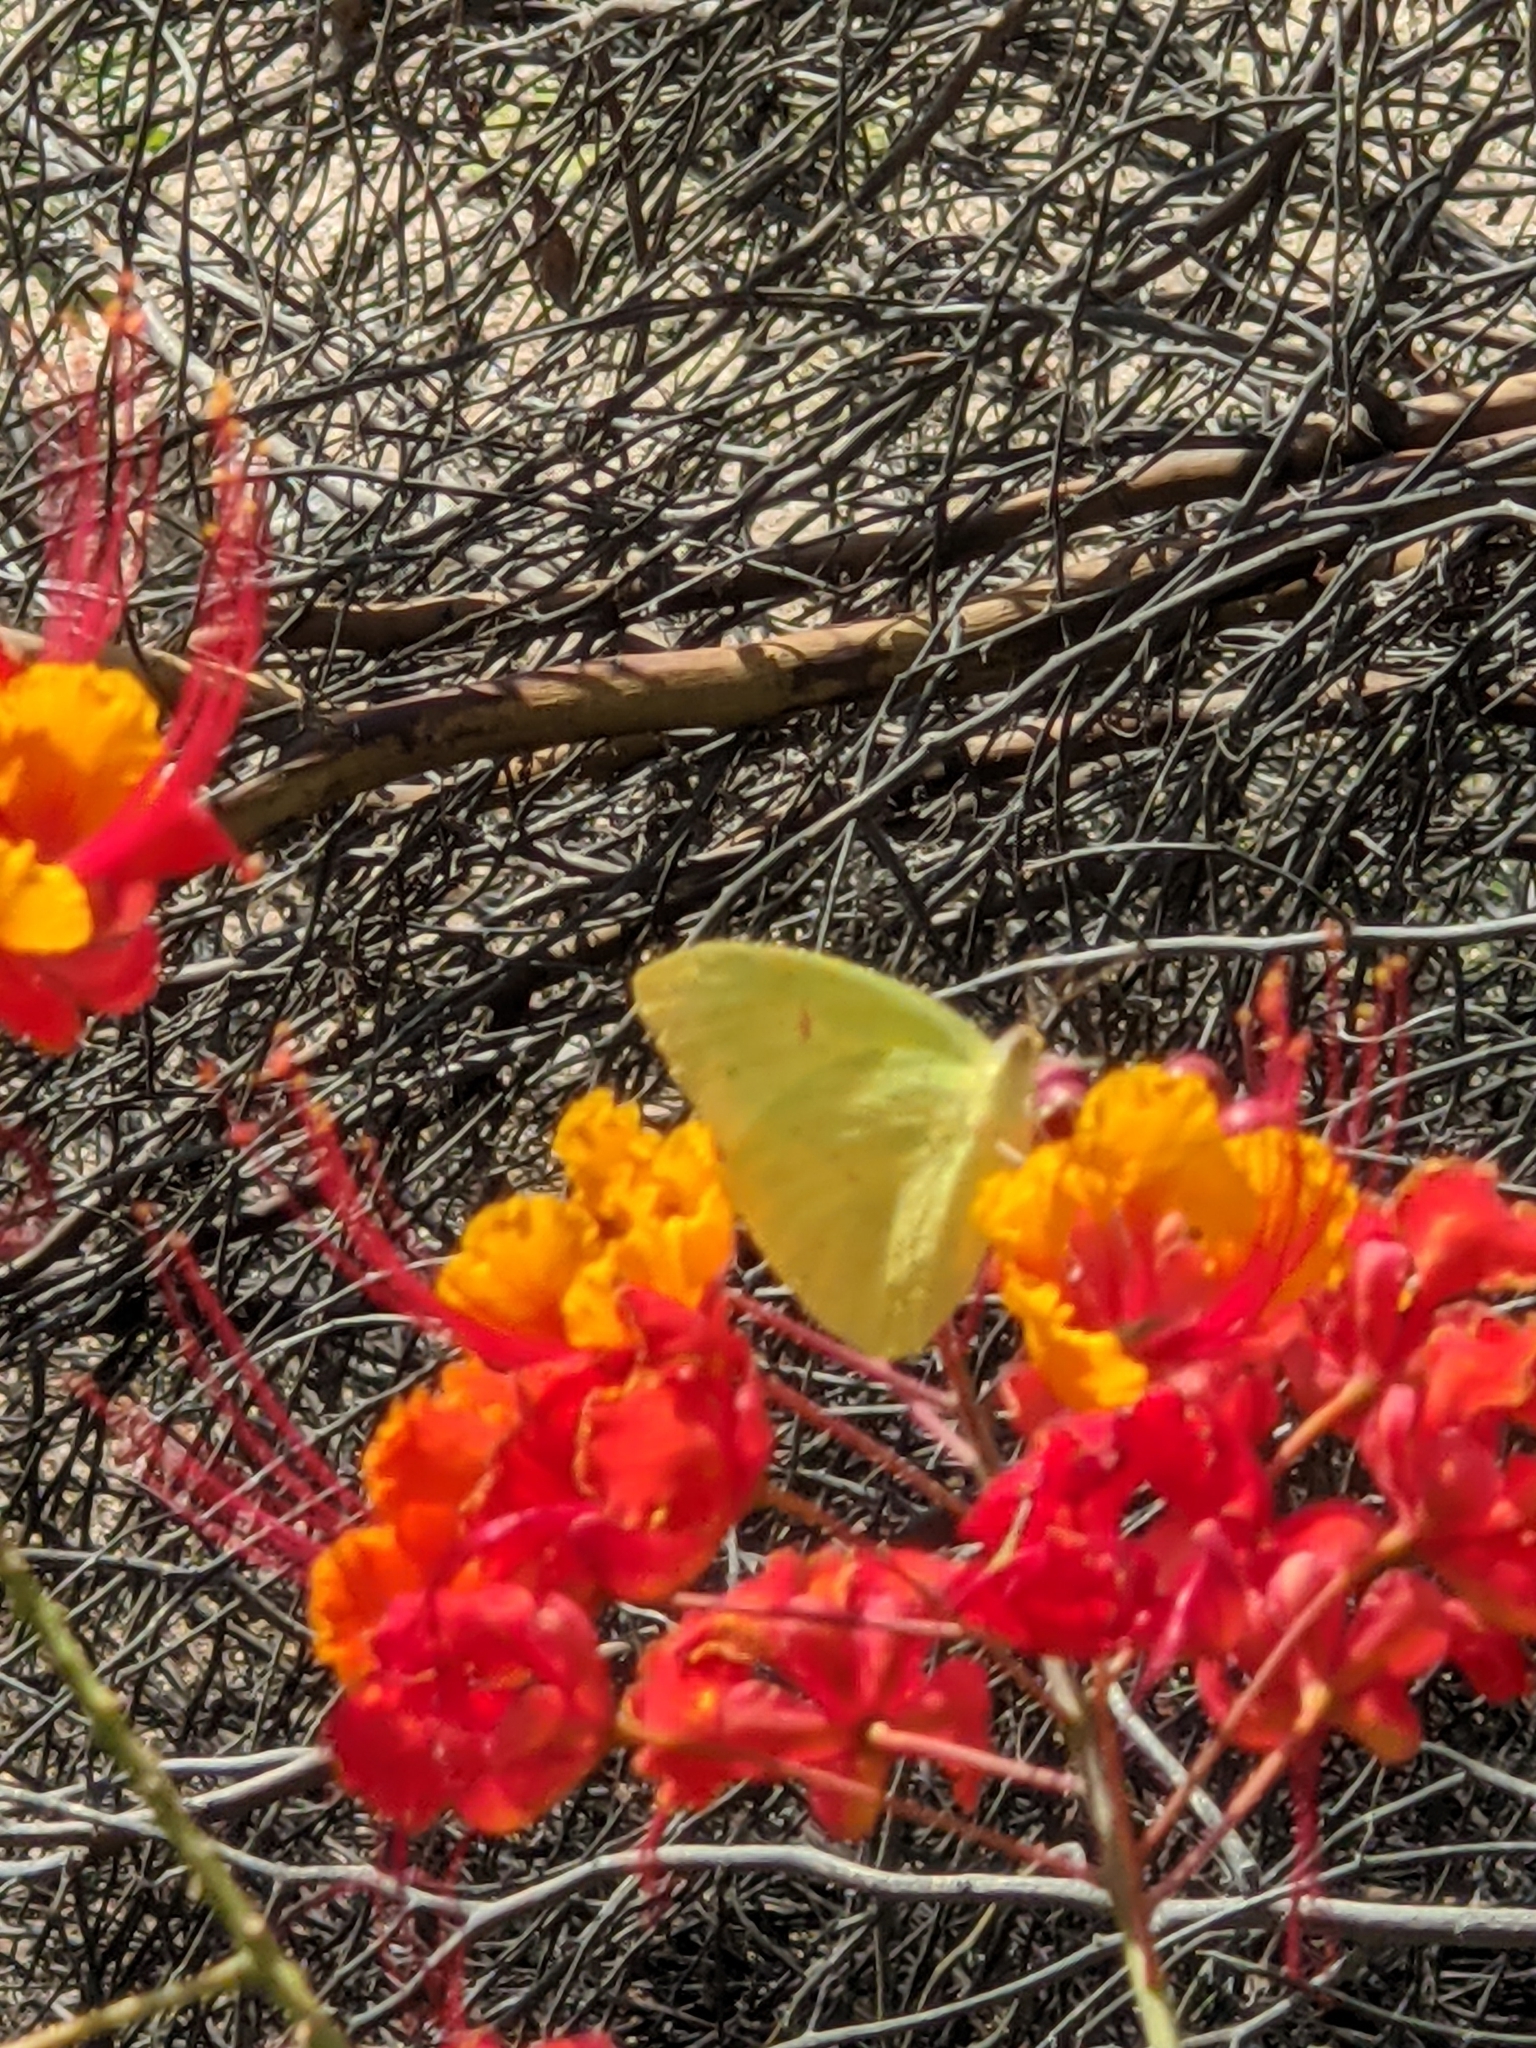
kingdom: Animalia
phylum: Arthropoda
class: Insecta
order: Lepidoptera
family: Pieridae
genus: Phoebis
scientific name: Phoebis sennae
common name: Cloudless sulphur
